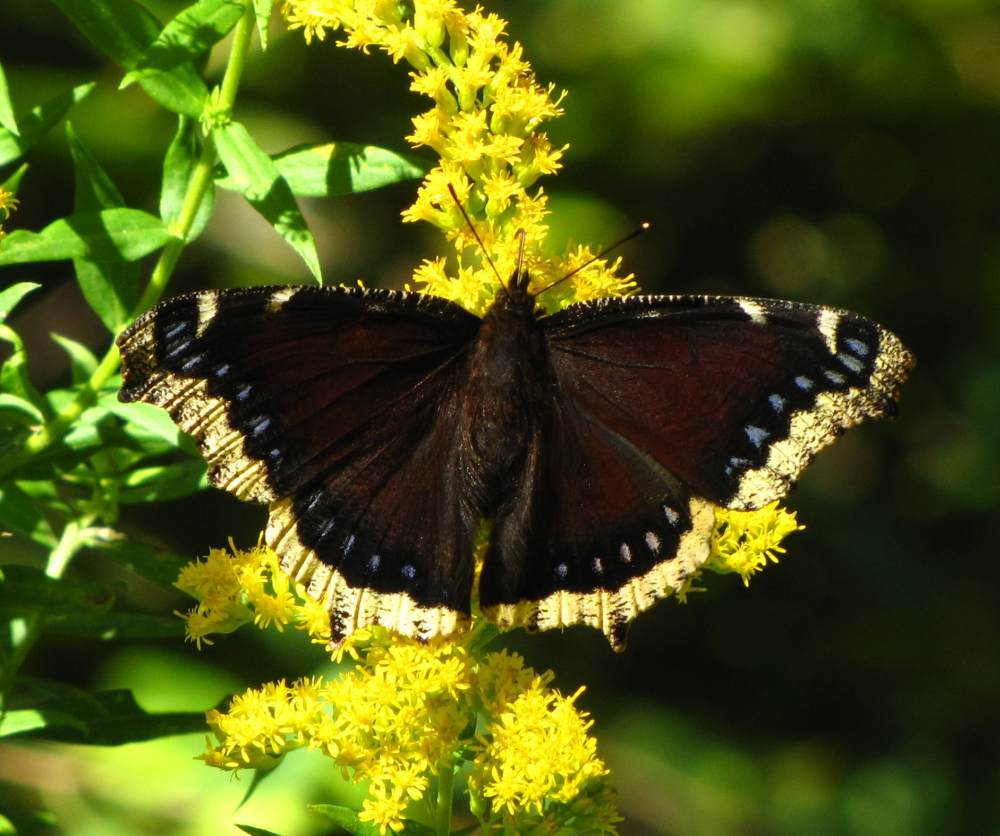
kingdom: Animalia
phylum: Arthropoda
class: Insecta
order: Lepidoptera
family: Nymphalidae
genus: Nymphalis
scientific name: Nymphalis antiopa
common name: Camberwell beauty
